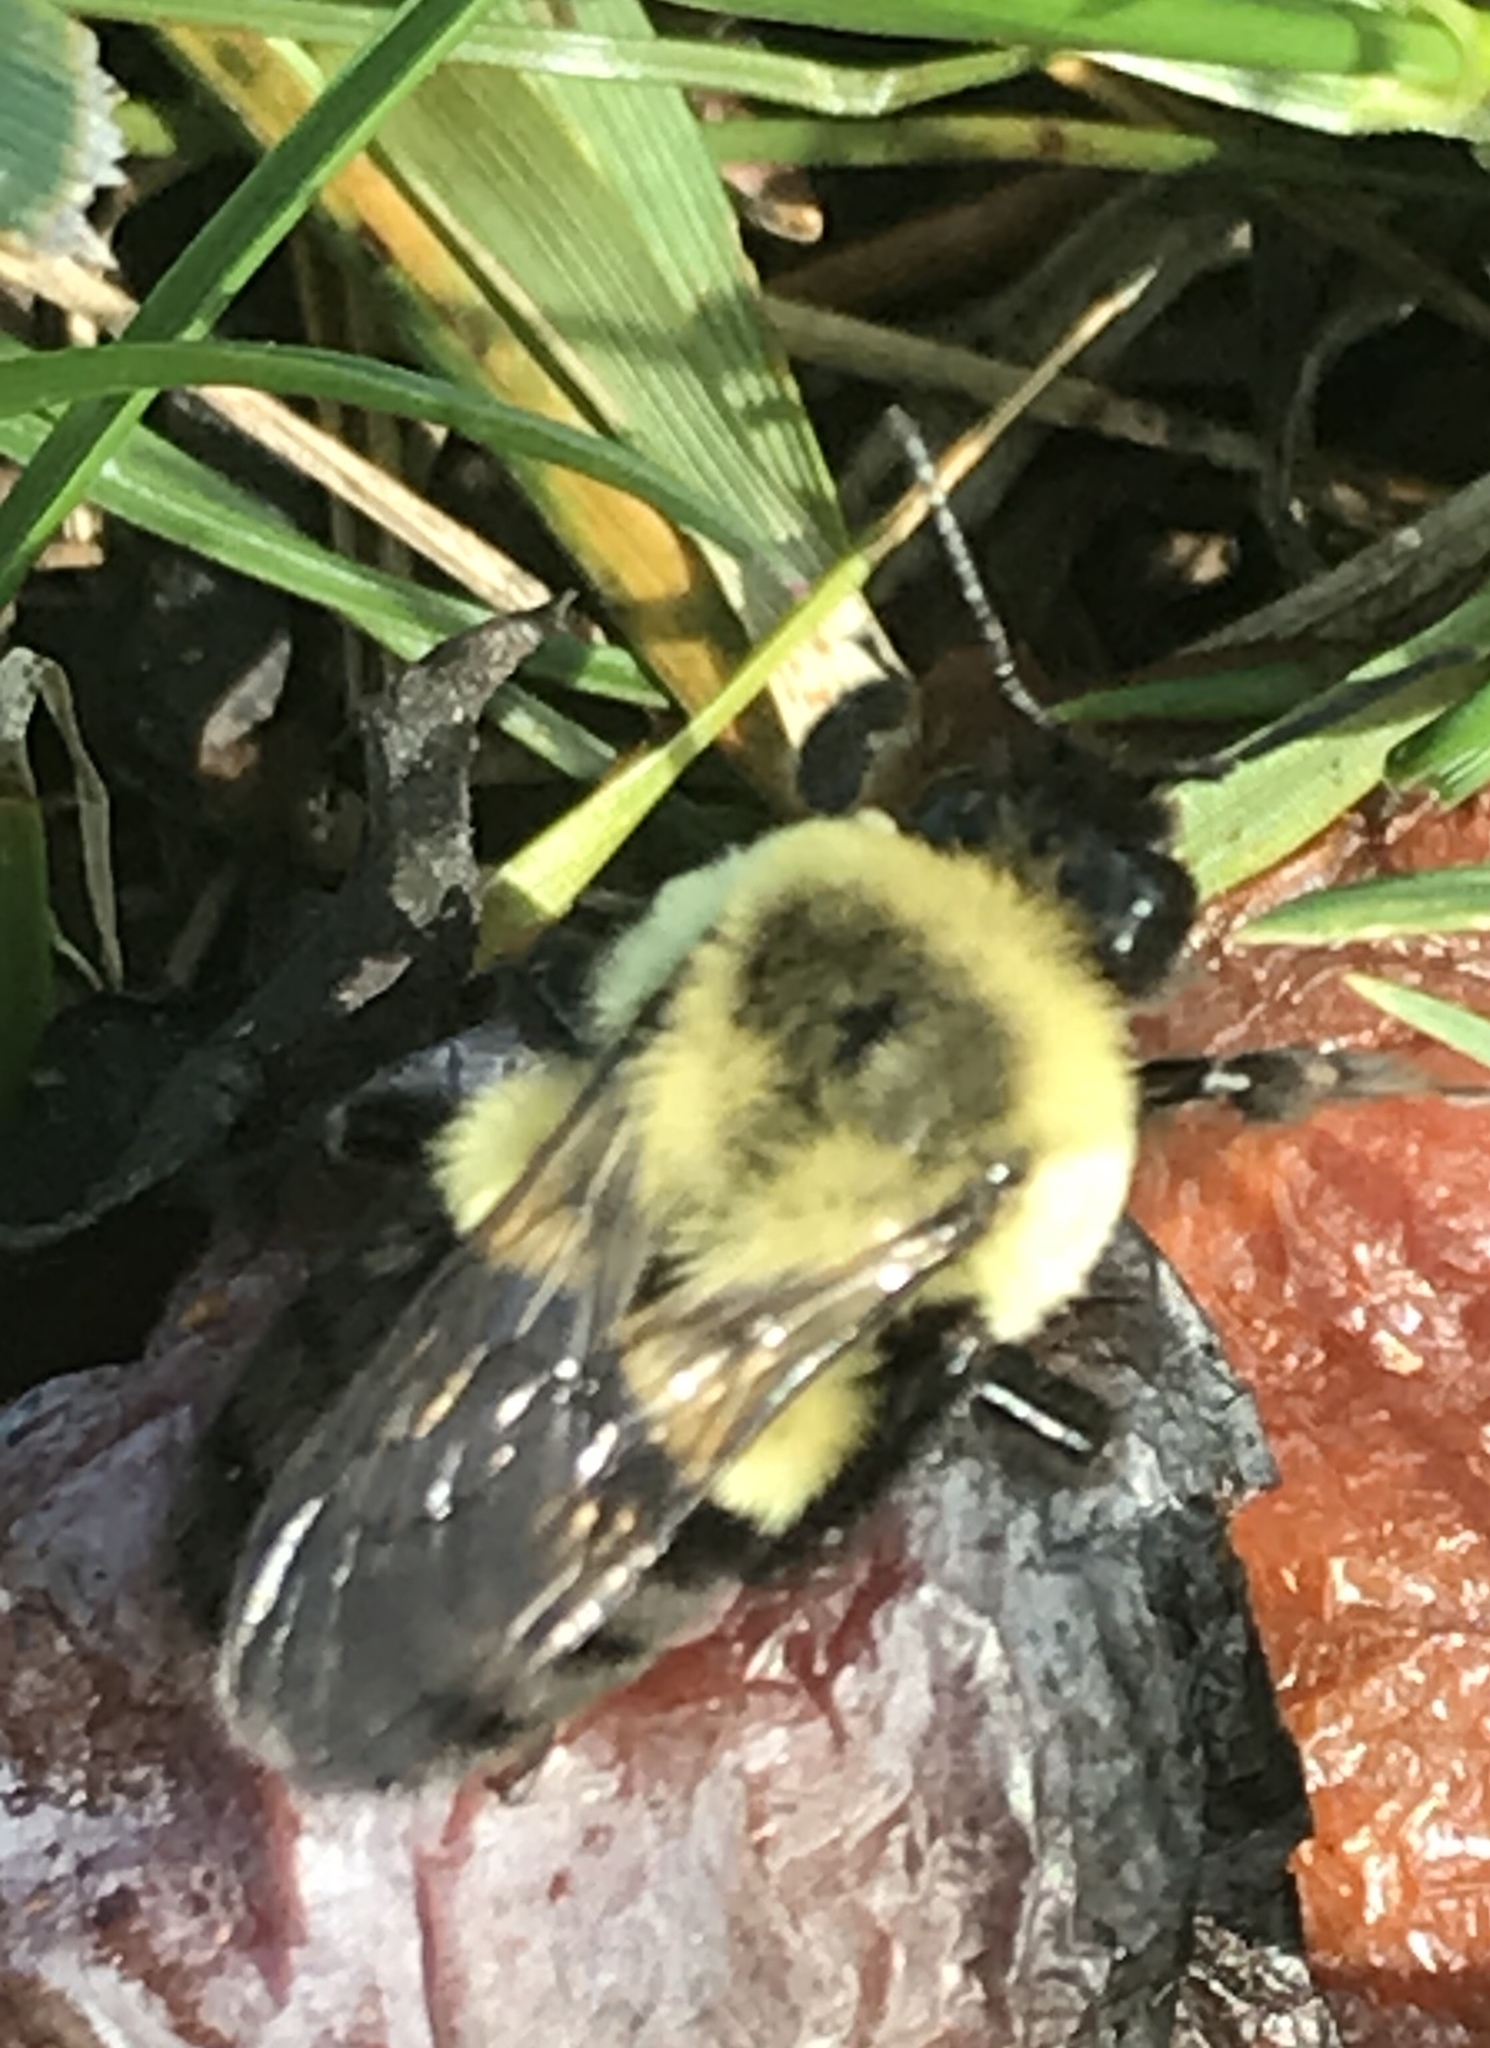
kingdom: Animalia
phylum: Arthropoda
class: Insecta
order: Hymenoptera
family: Apidae
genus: Bombus
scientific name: Bombus impatiens
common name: Common eastern bumble bee
